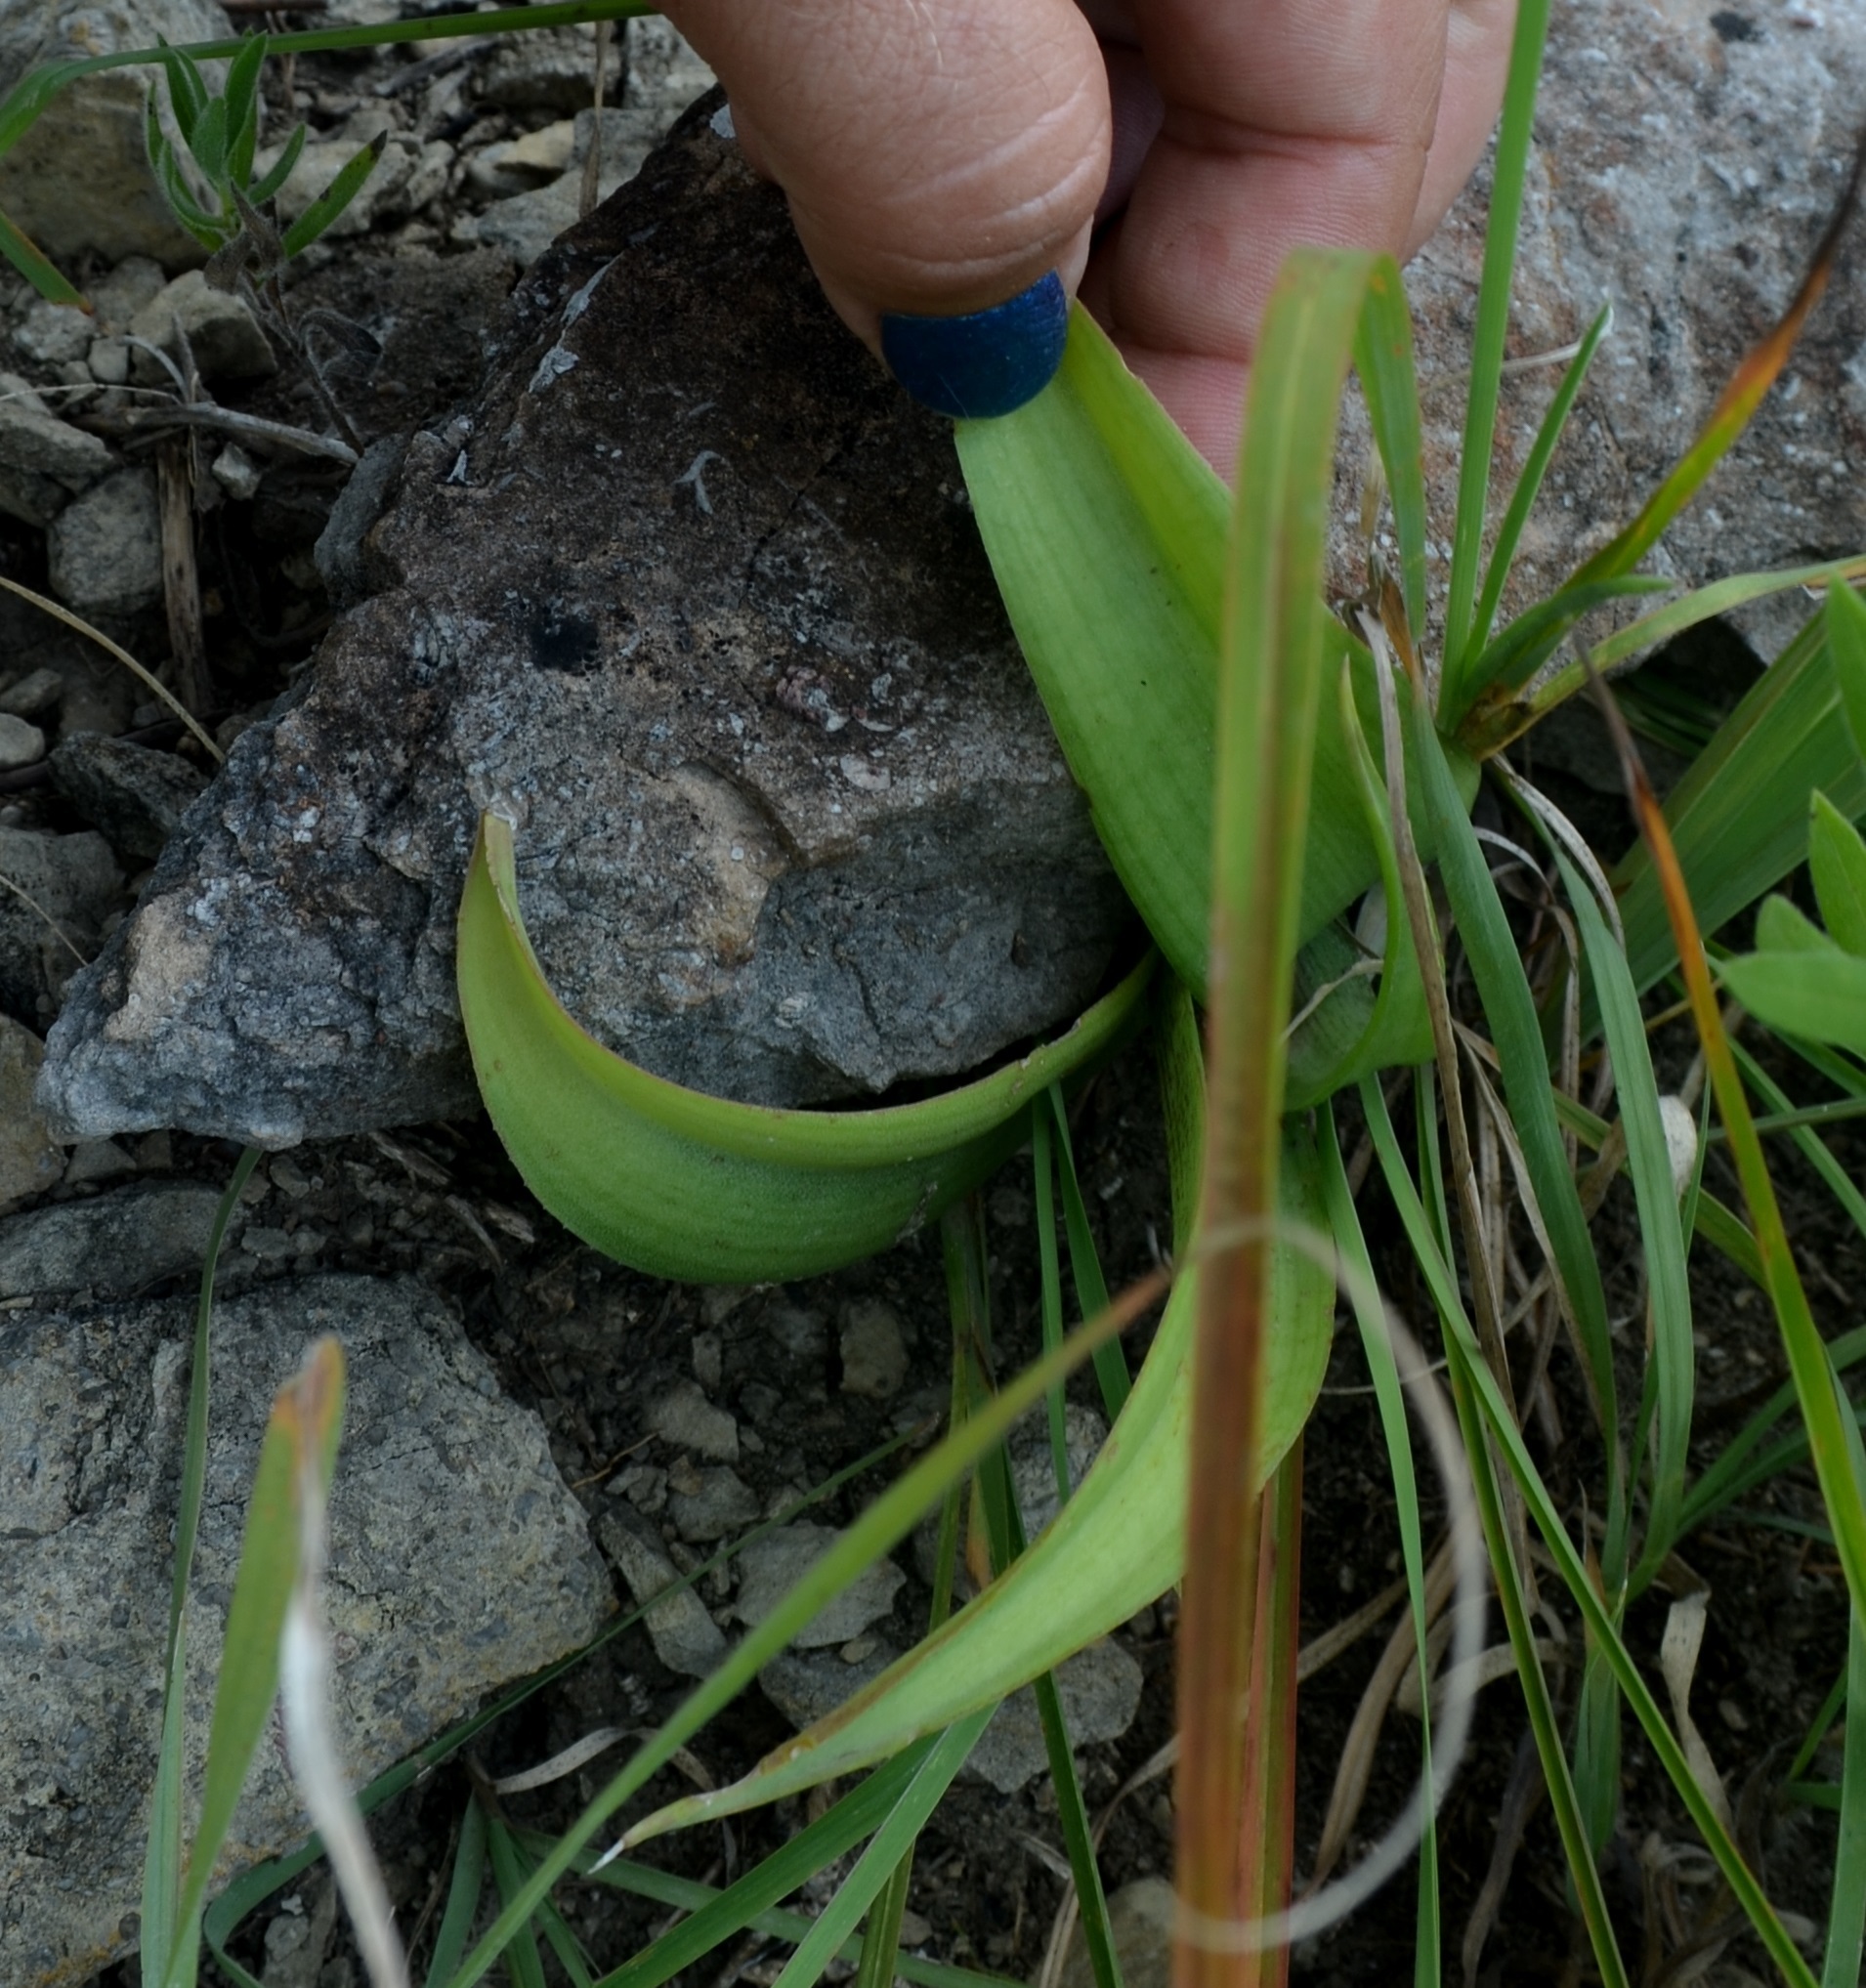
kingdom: Plantae
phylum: Tracheophyta
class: Liliopsida
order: Asparagales
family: Asparagaceae
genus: Agave
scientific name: Agave virginica
